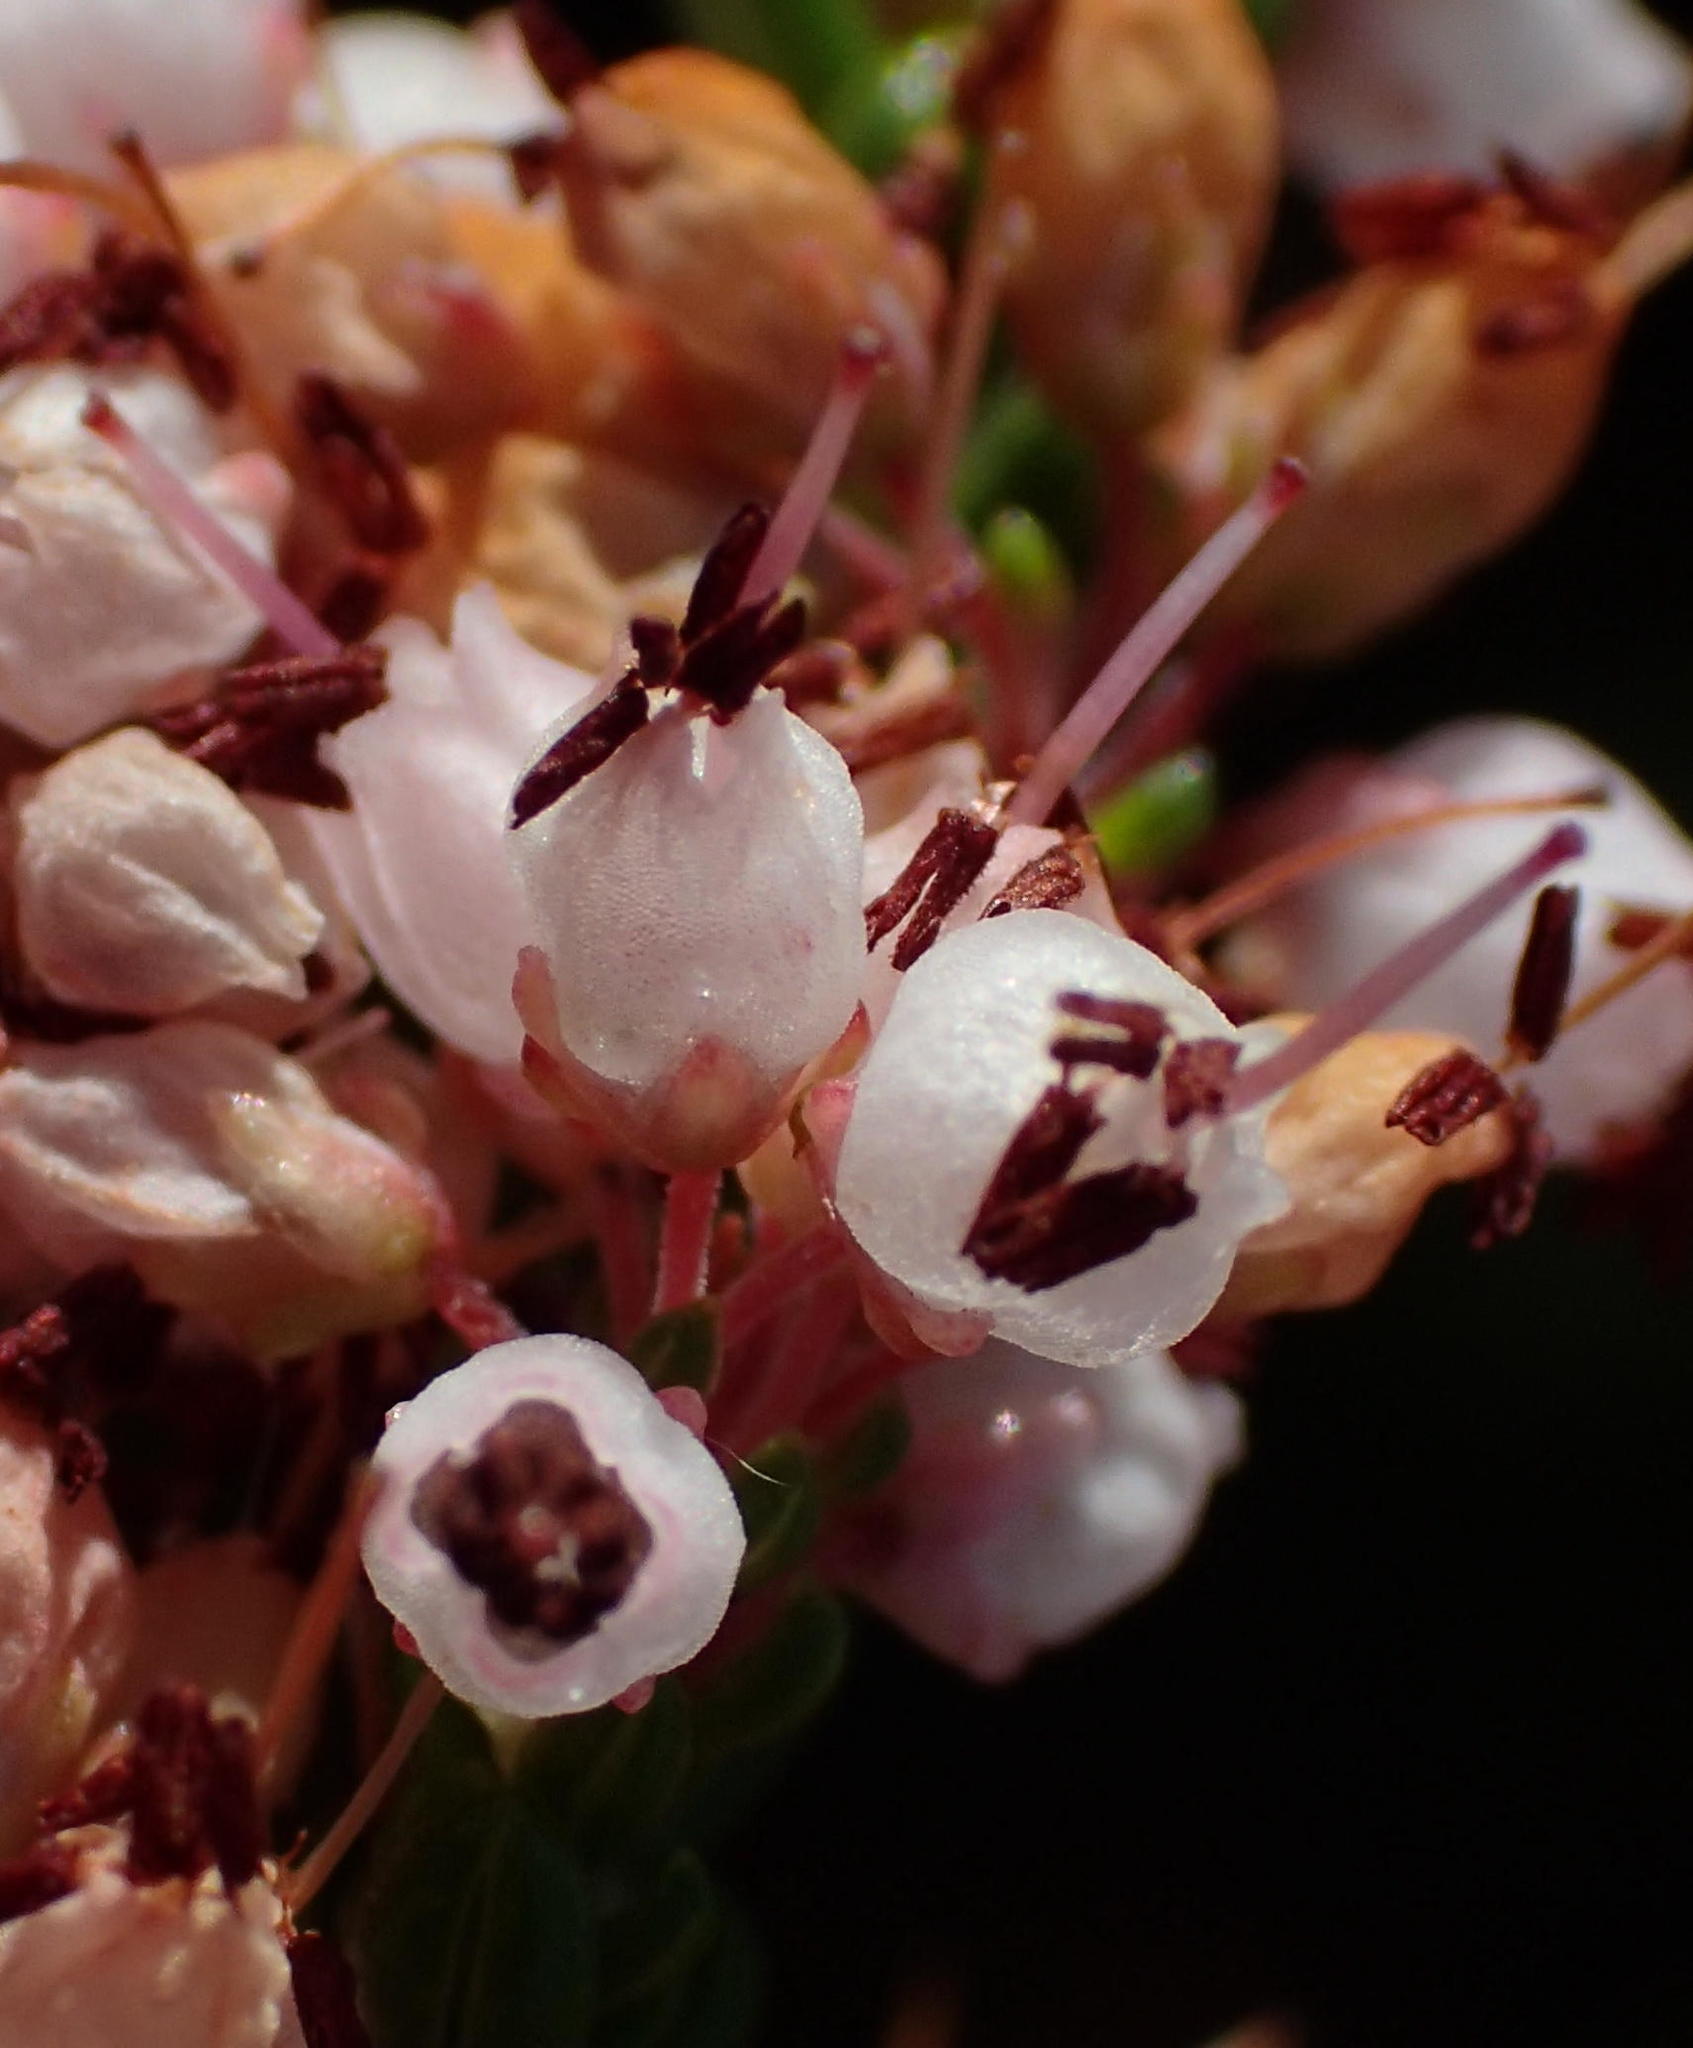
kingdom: Plantae
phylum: Tracheophyta
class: Magnoliopsida
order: Ericales
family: Ericaceae
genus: Erica
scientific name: Erica demissa
